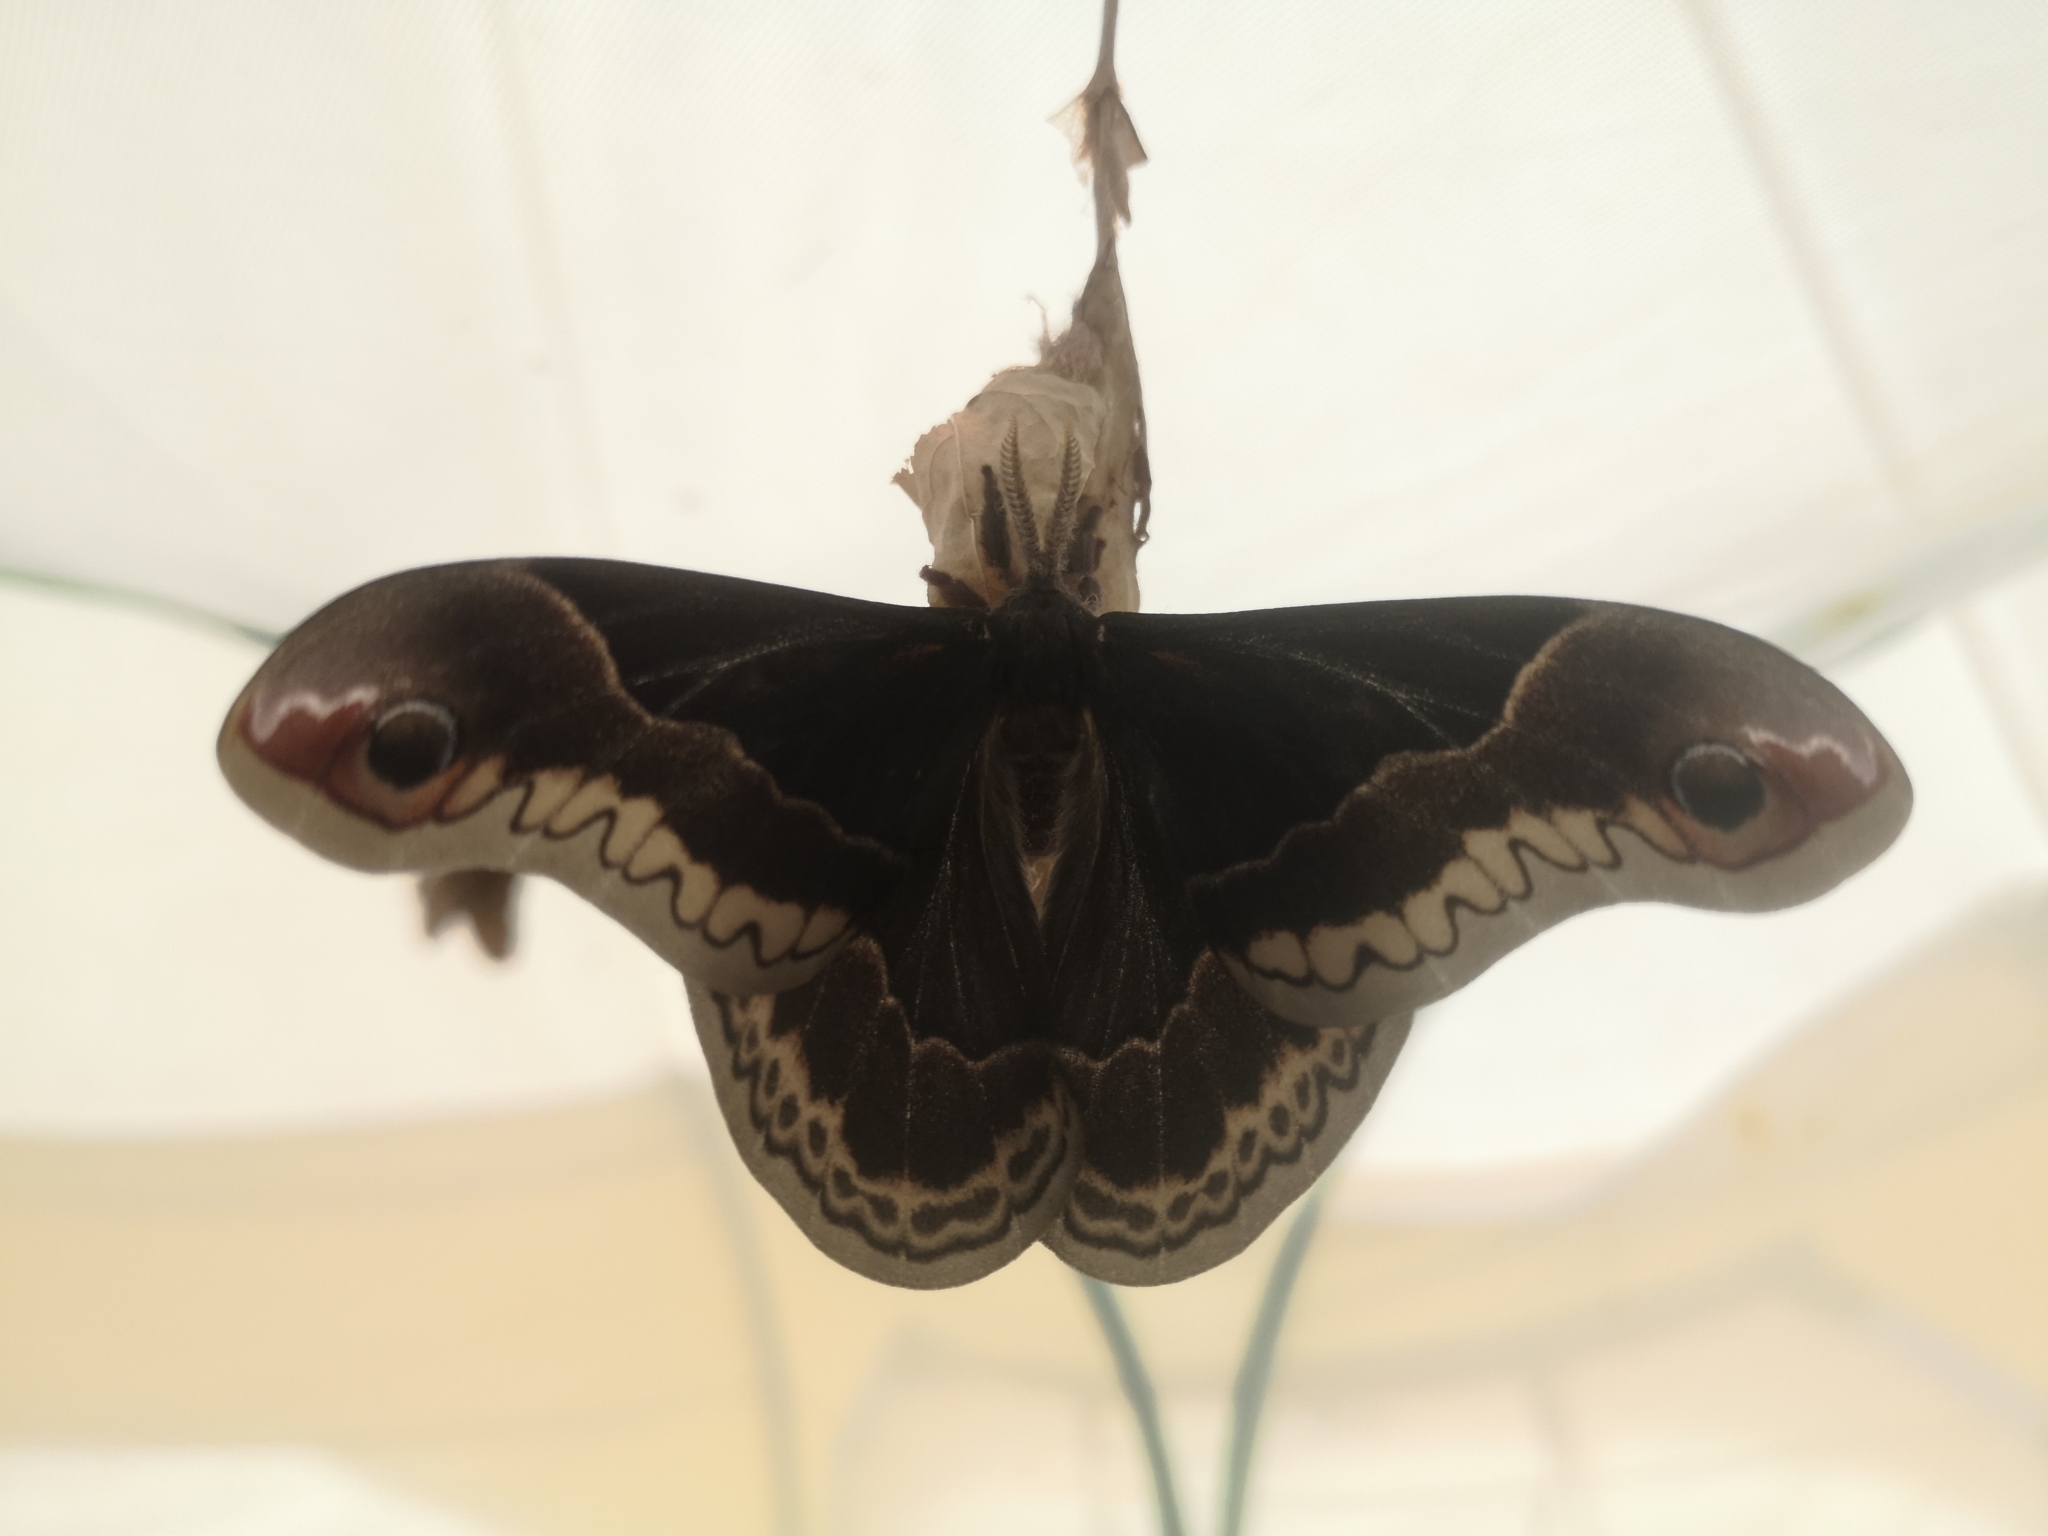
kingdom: Animalia
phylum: Arthropoda
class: Insecta
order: Lepidoptera
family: Saturniidae
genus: Callosamia
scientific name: Callosamia promethea
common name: Promethea silkmoth
